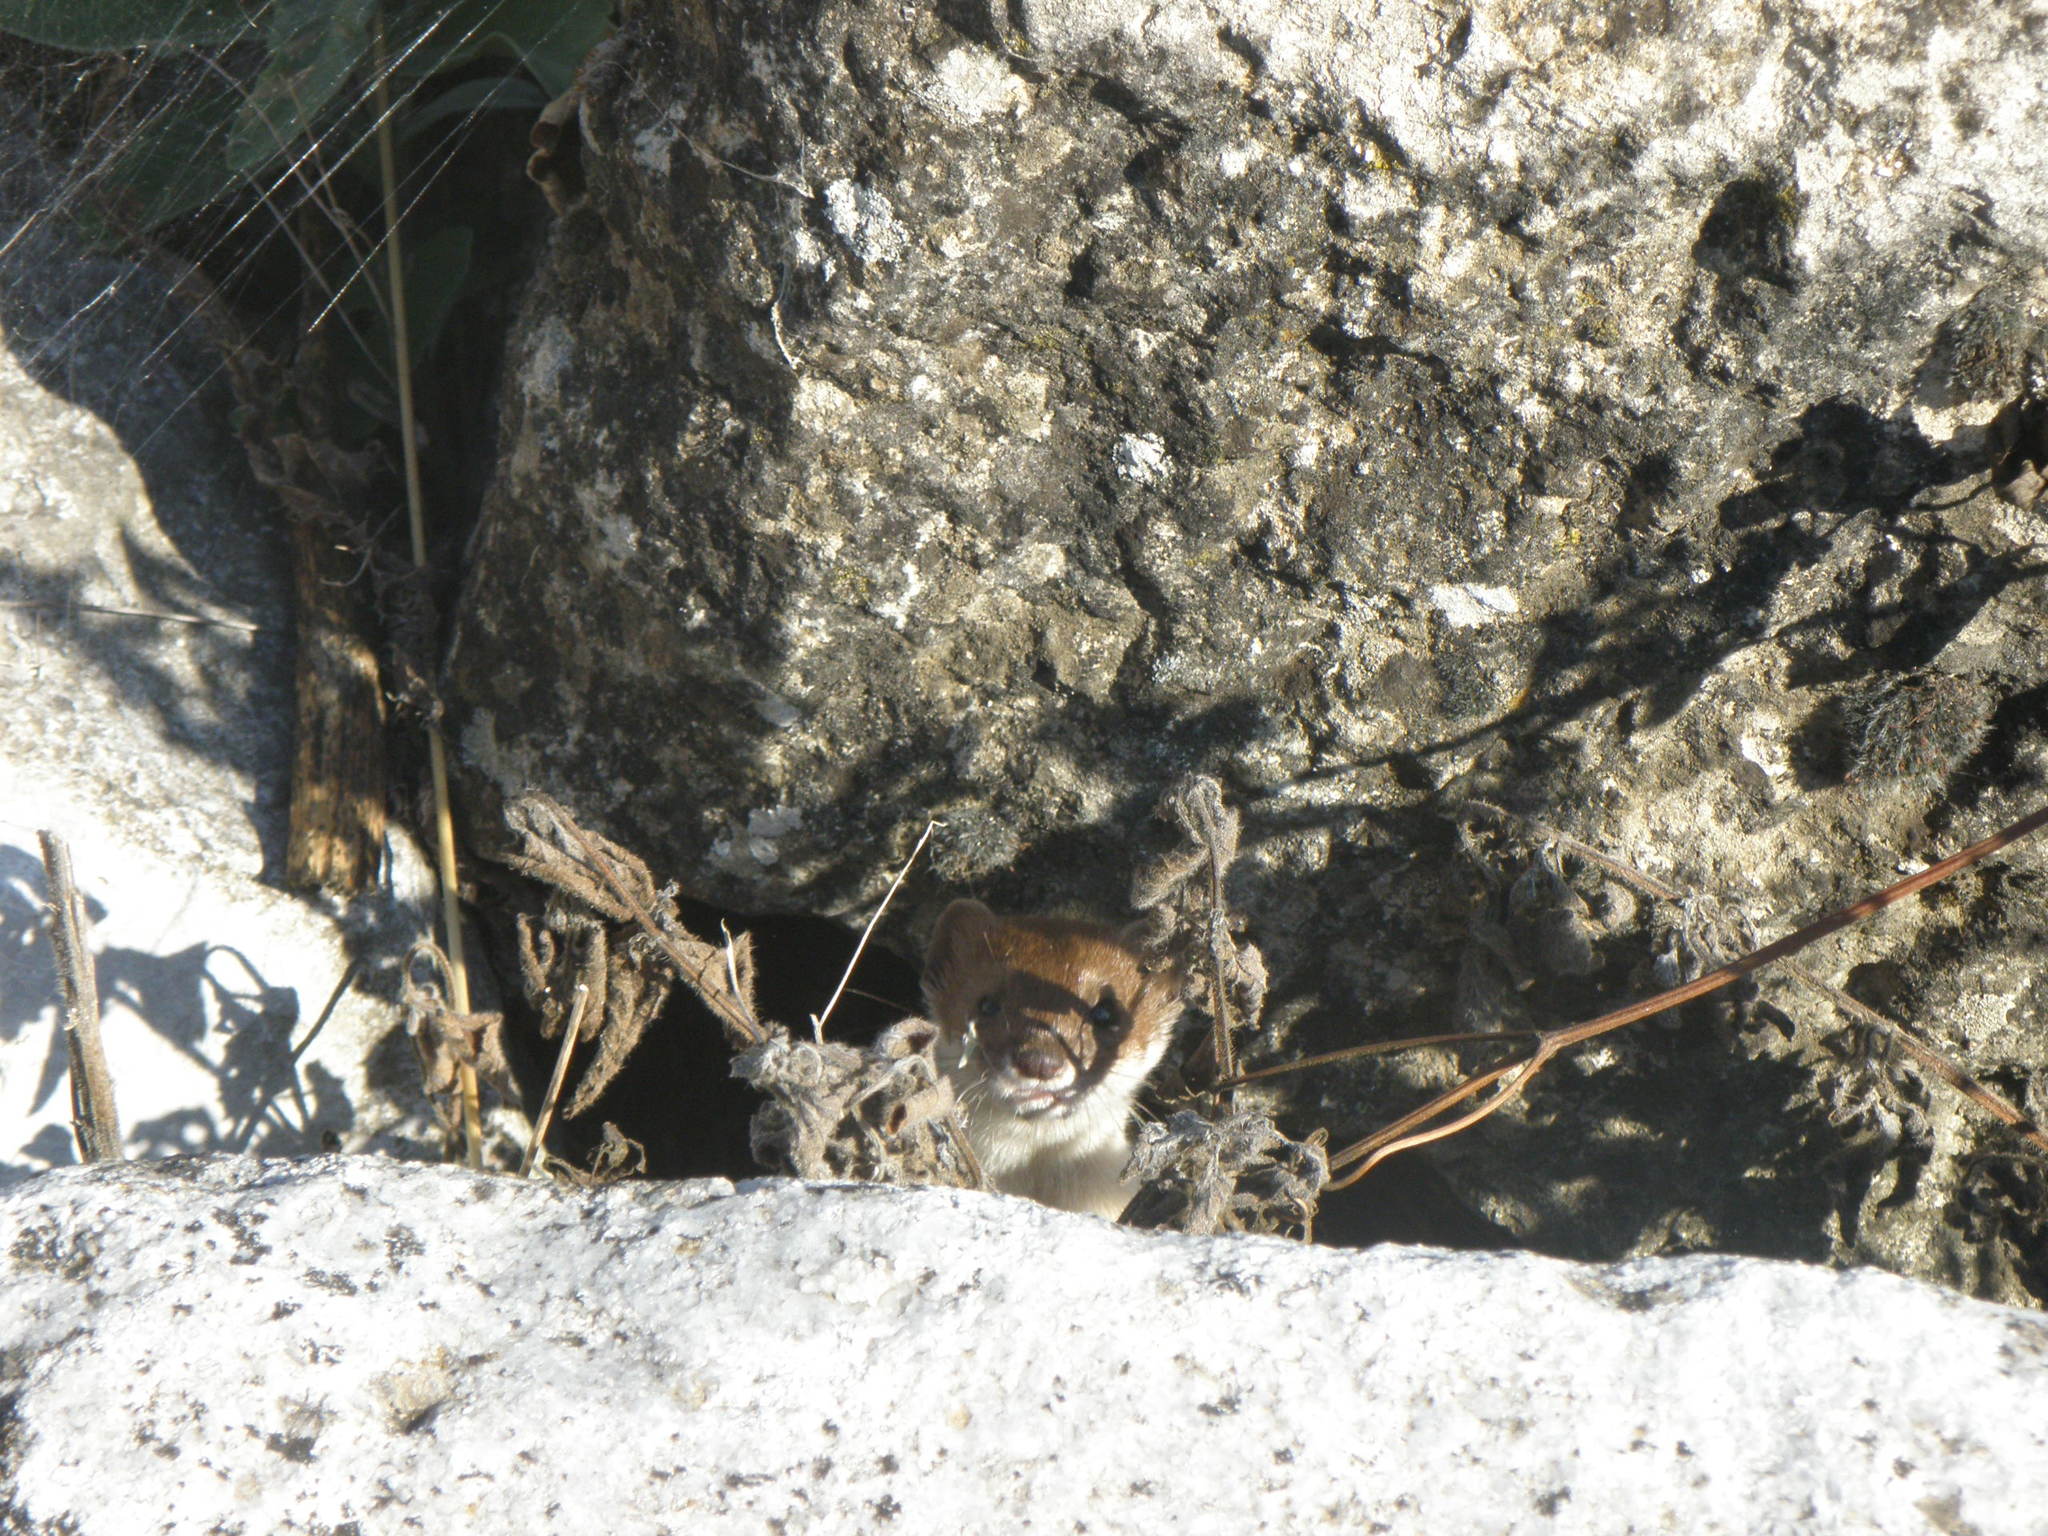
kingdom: Animalia
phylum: Chordata
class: Mammalia
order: Carnivora
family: Mustelidae
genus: Mustela
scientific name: Mustela nivalis
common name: Least weasel
